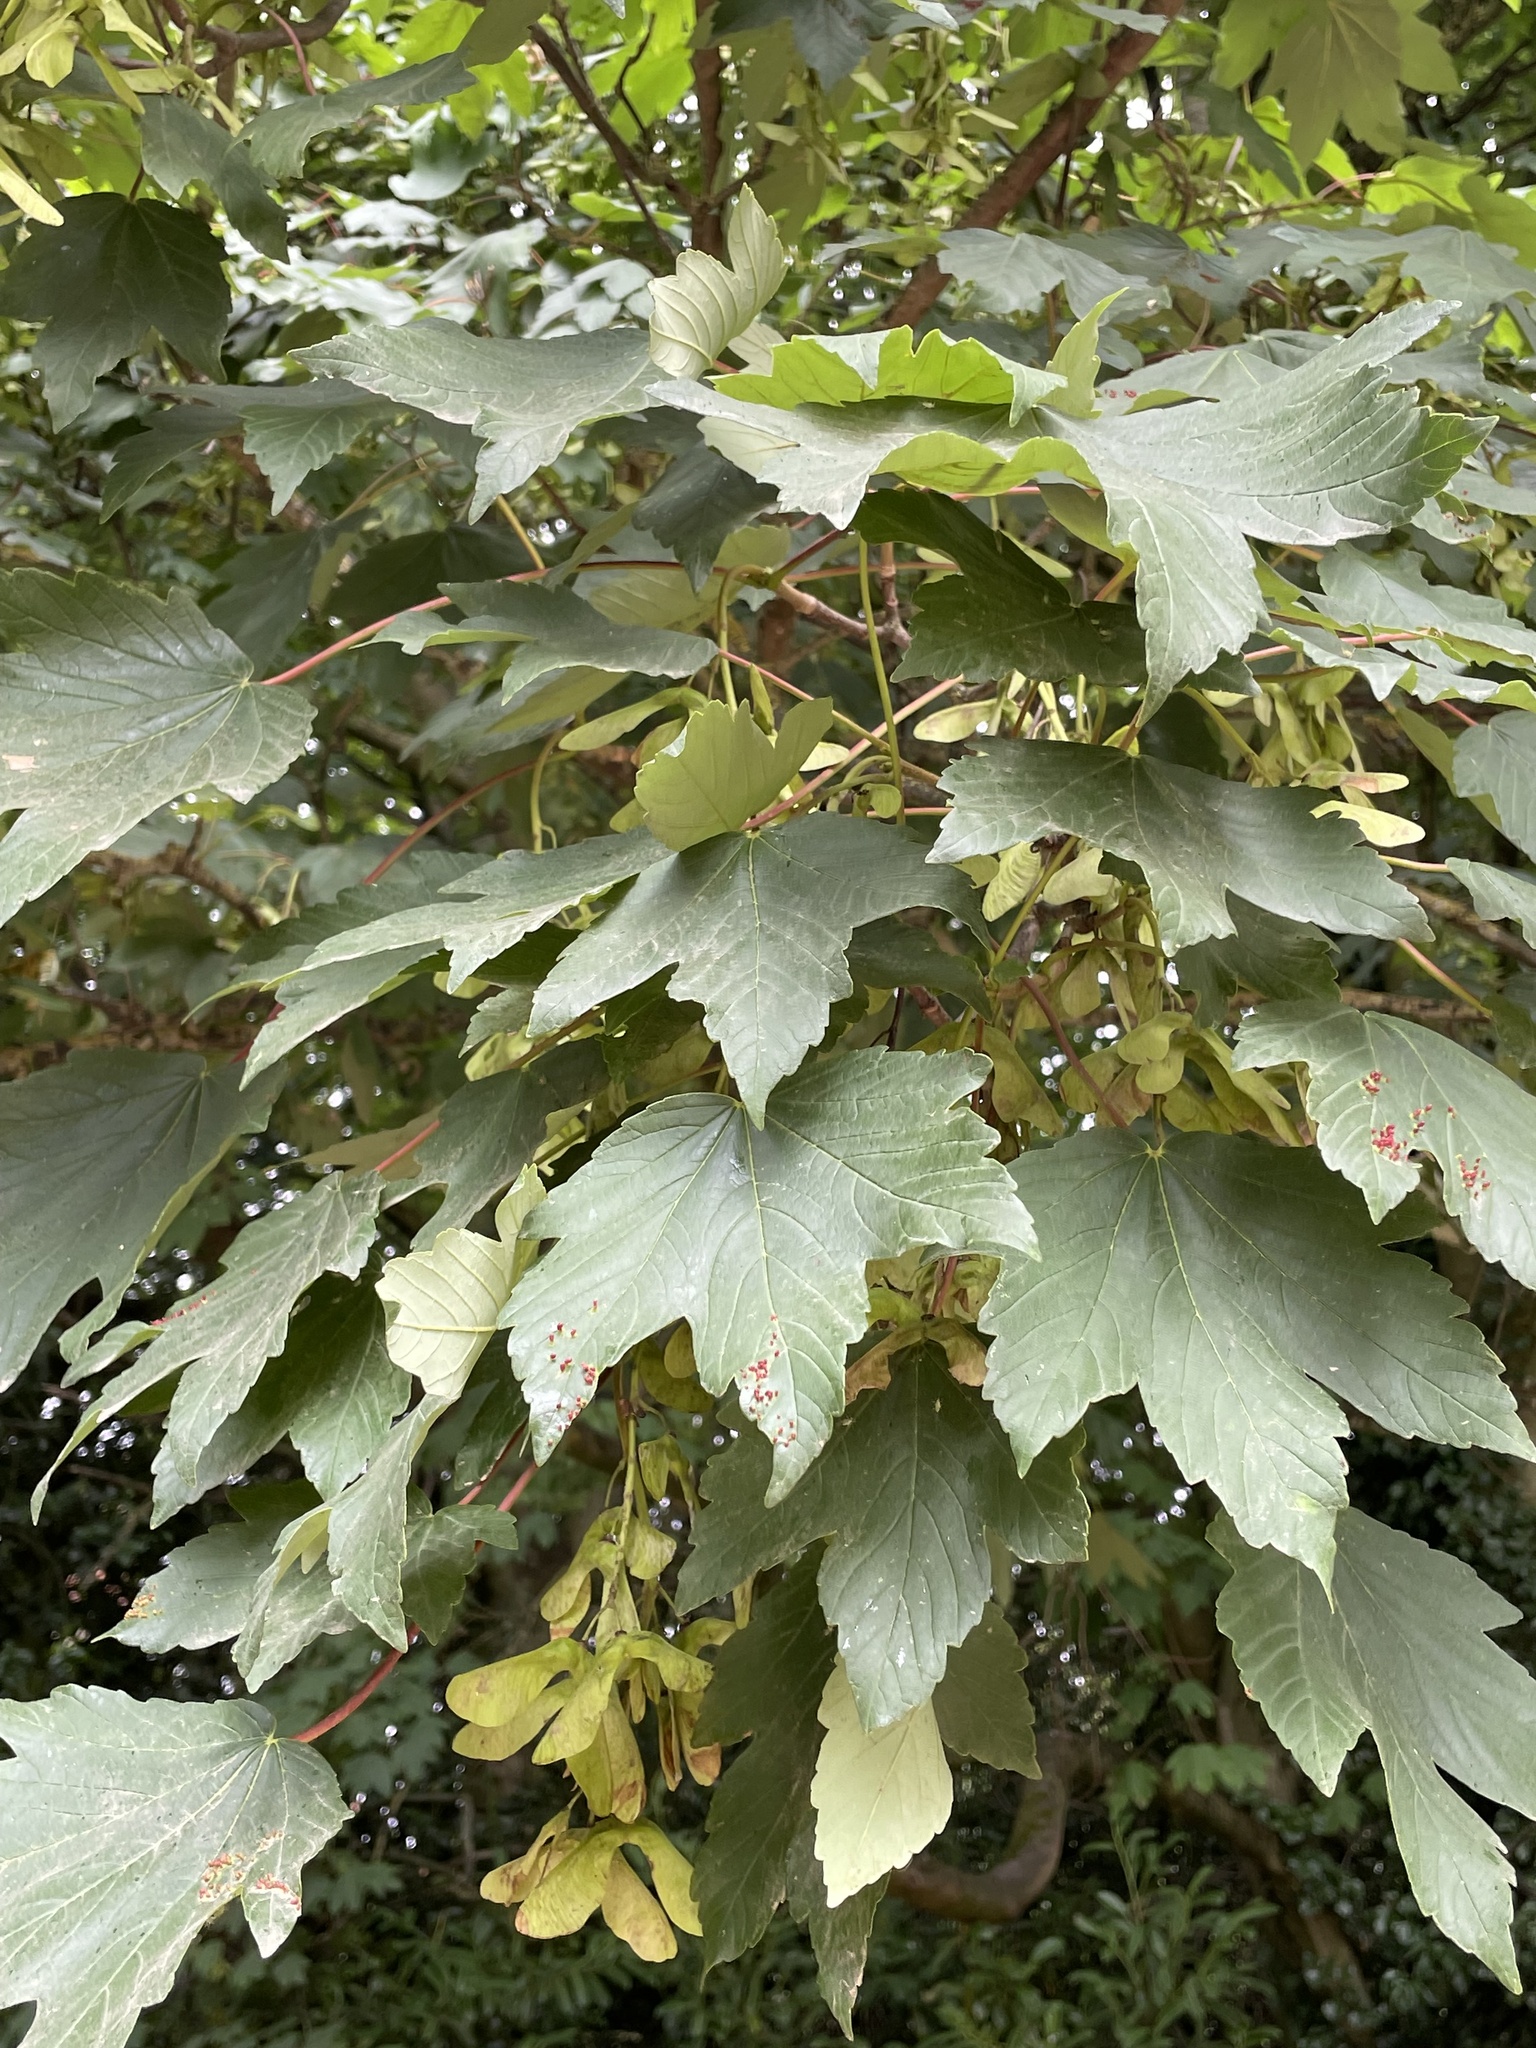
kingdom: Plantae
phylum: Tracheophyta
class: Magnoliopsida
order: Sapindales
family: Sapindaceae
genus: Acer
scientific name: Acer pseudoplatanus
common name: Sycamore
